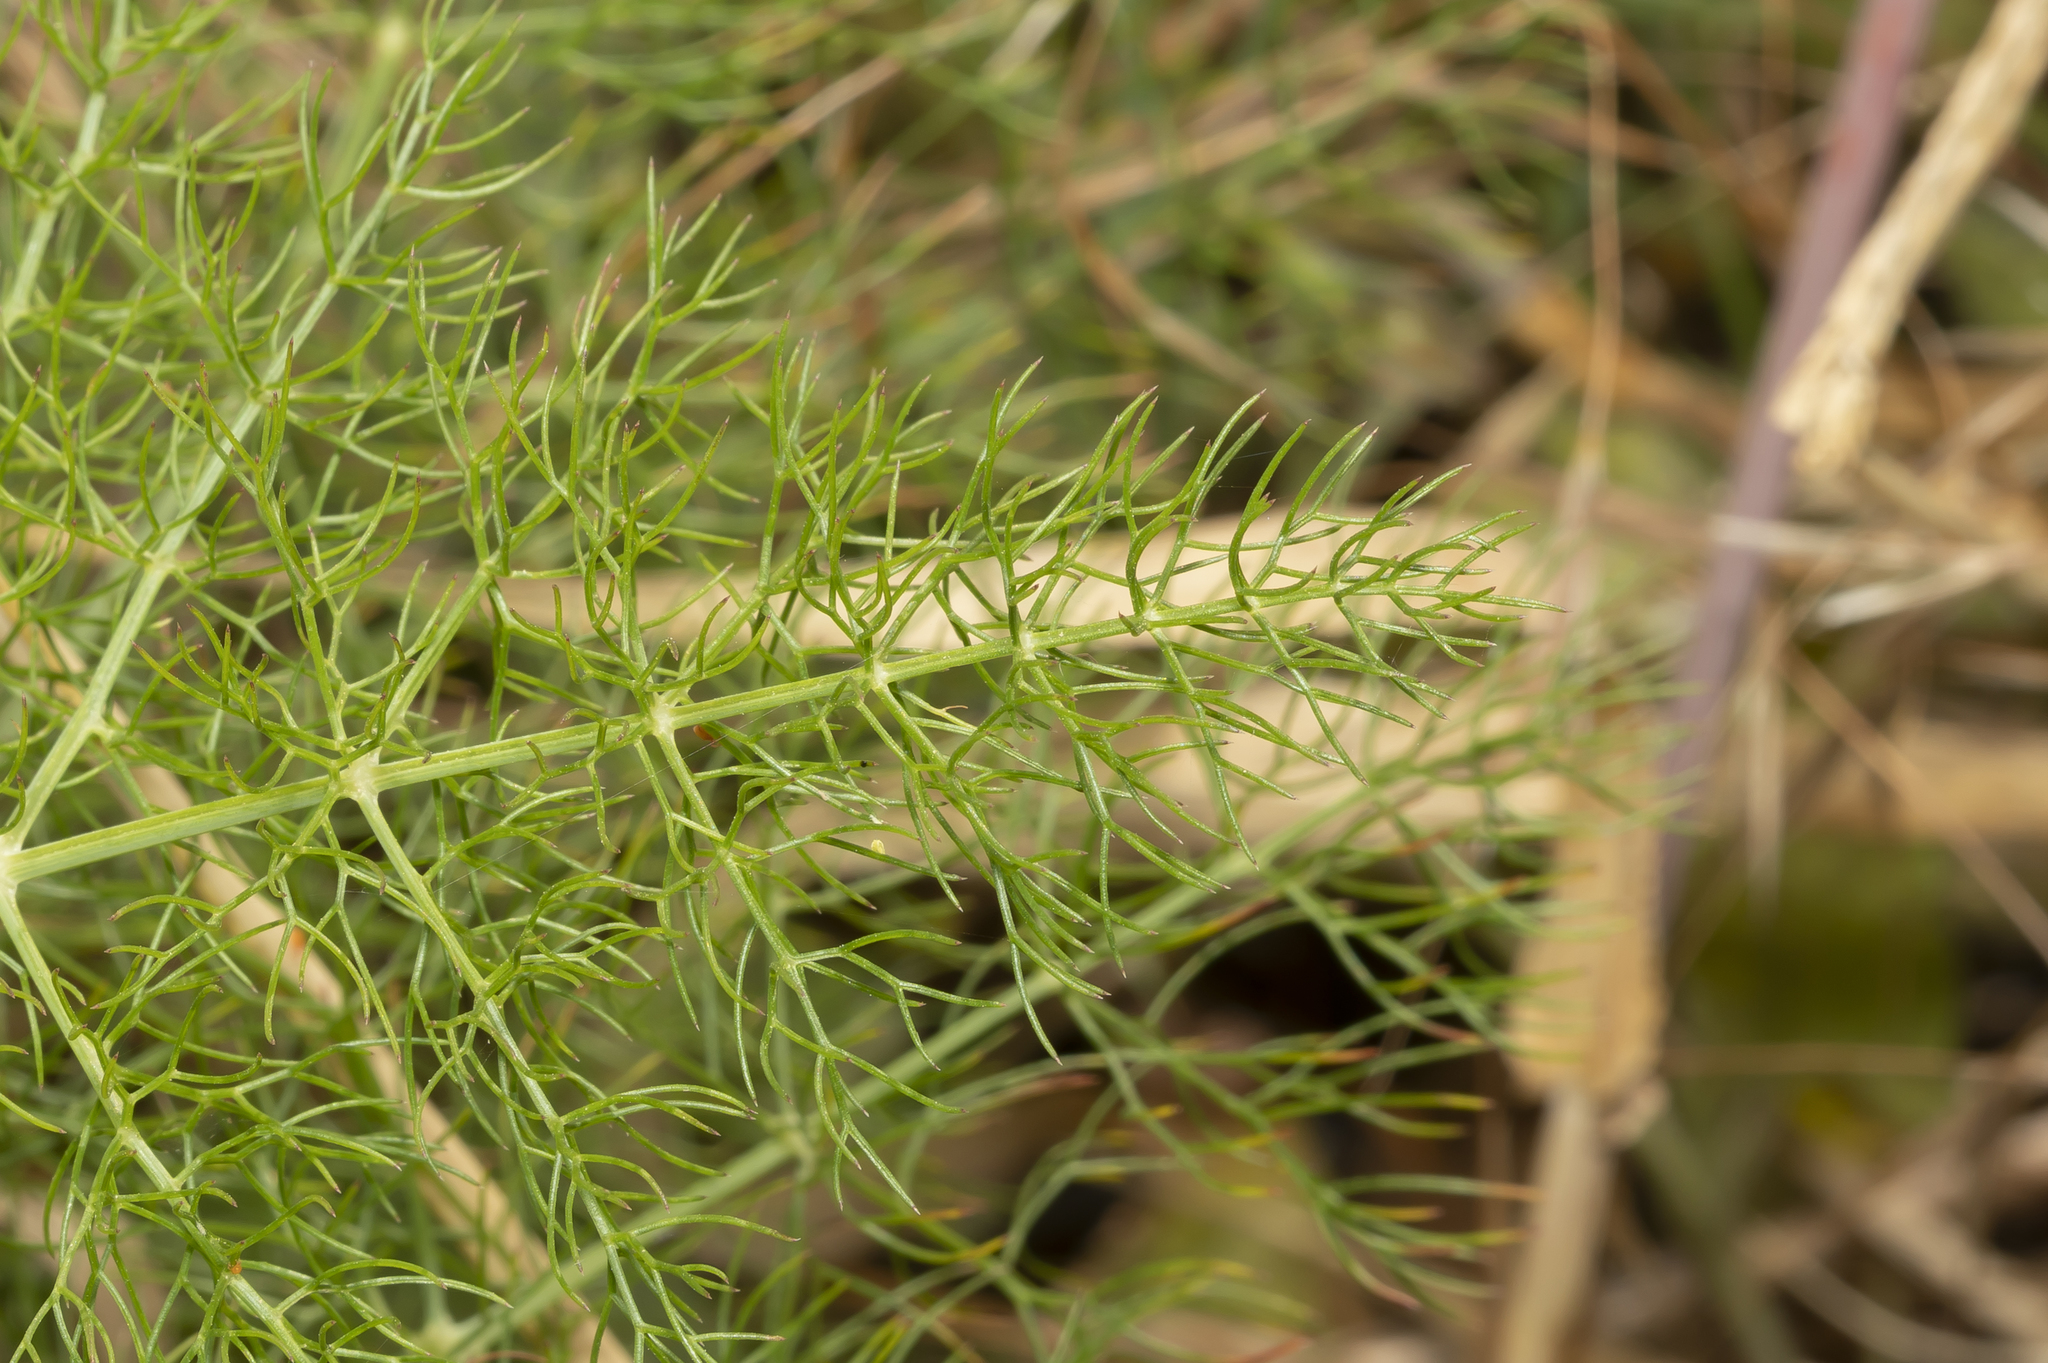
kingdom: Plantae
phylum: Tracheophyta
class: Magnoliopsida
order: Apiales
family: Apiaceae
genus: Foeniculum
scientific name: Foeniculum vulgare
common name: Fennel
